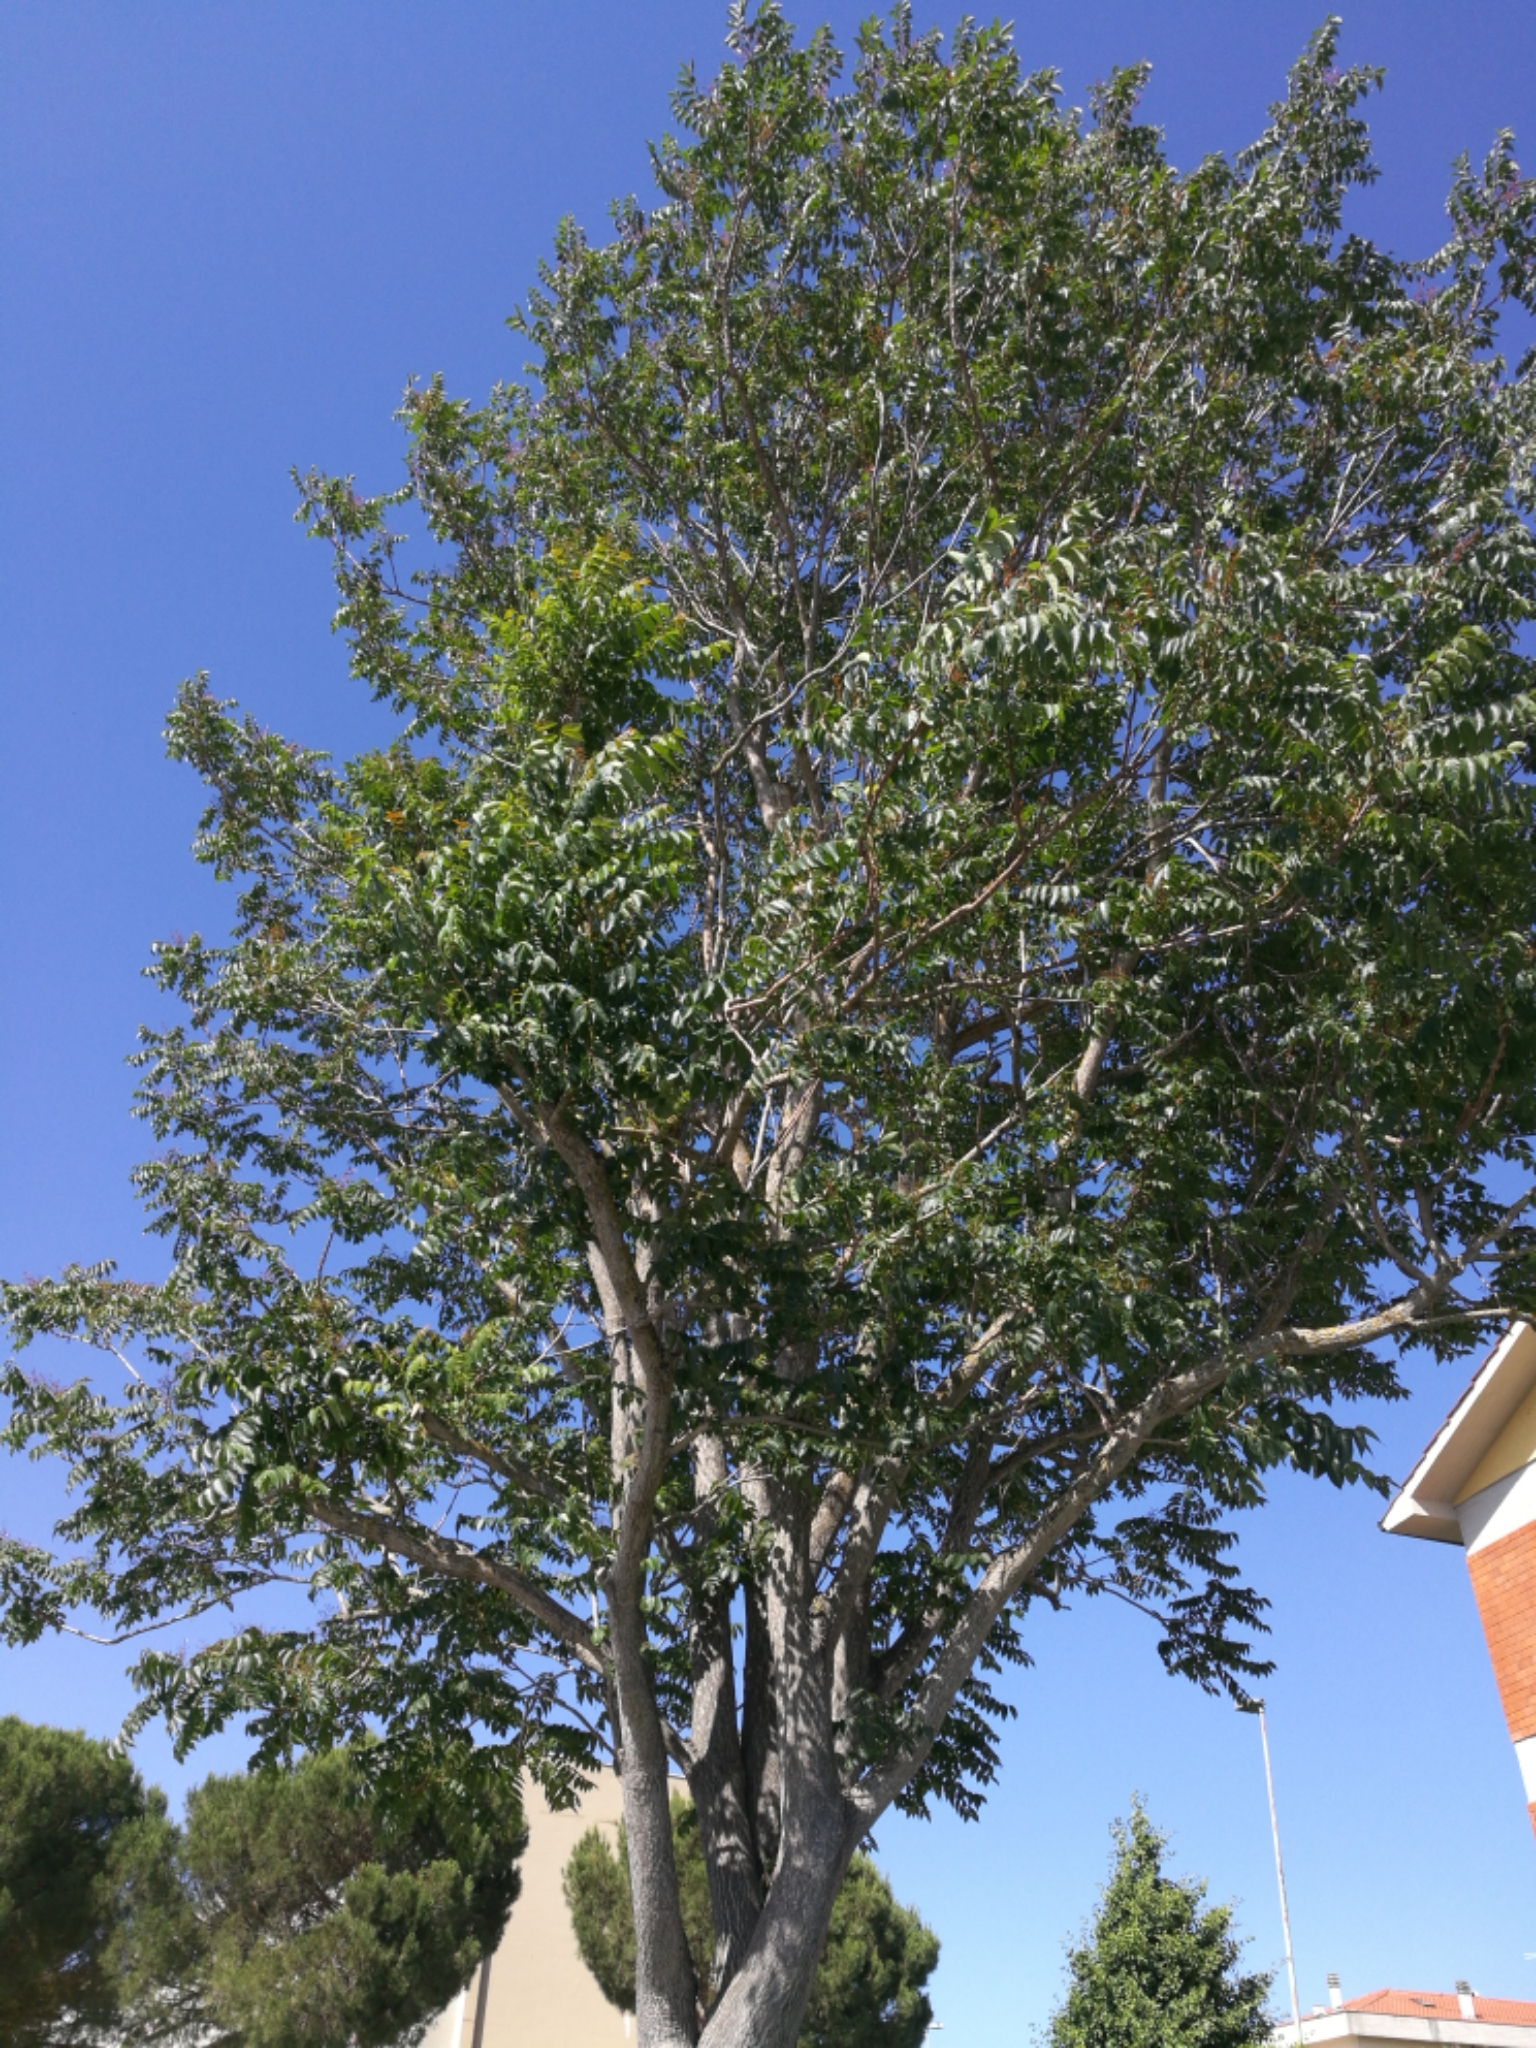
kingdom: Plantae
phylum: Tracheophyta
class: Magnoliopsida
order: Sapindales
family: Simaroubaceae
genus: Ailanthus
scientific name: Ailanthus altissima
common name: Tree-of-heaven
